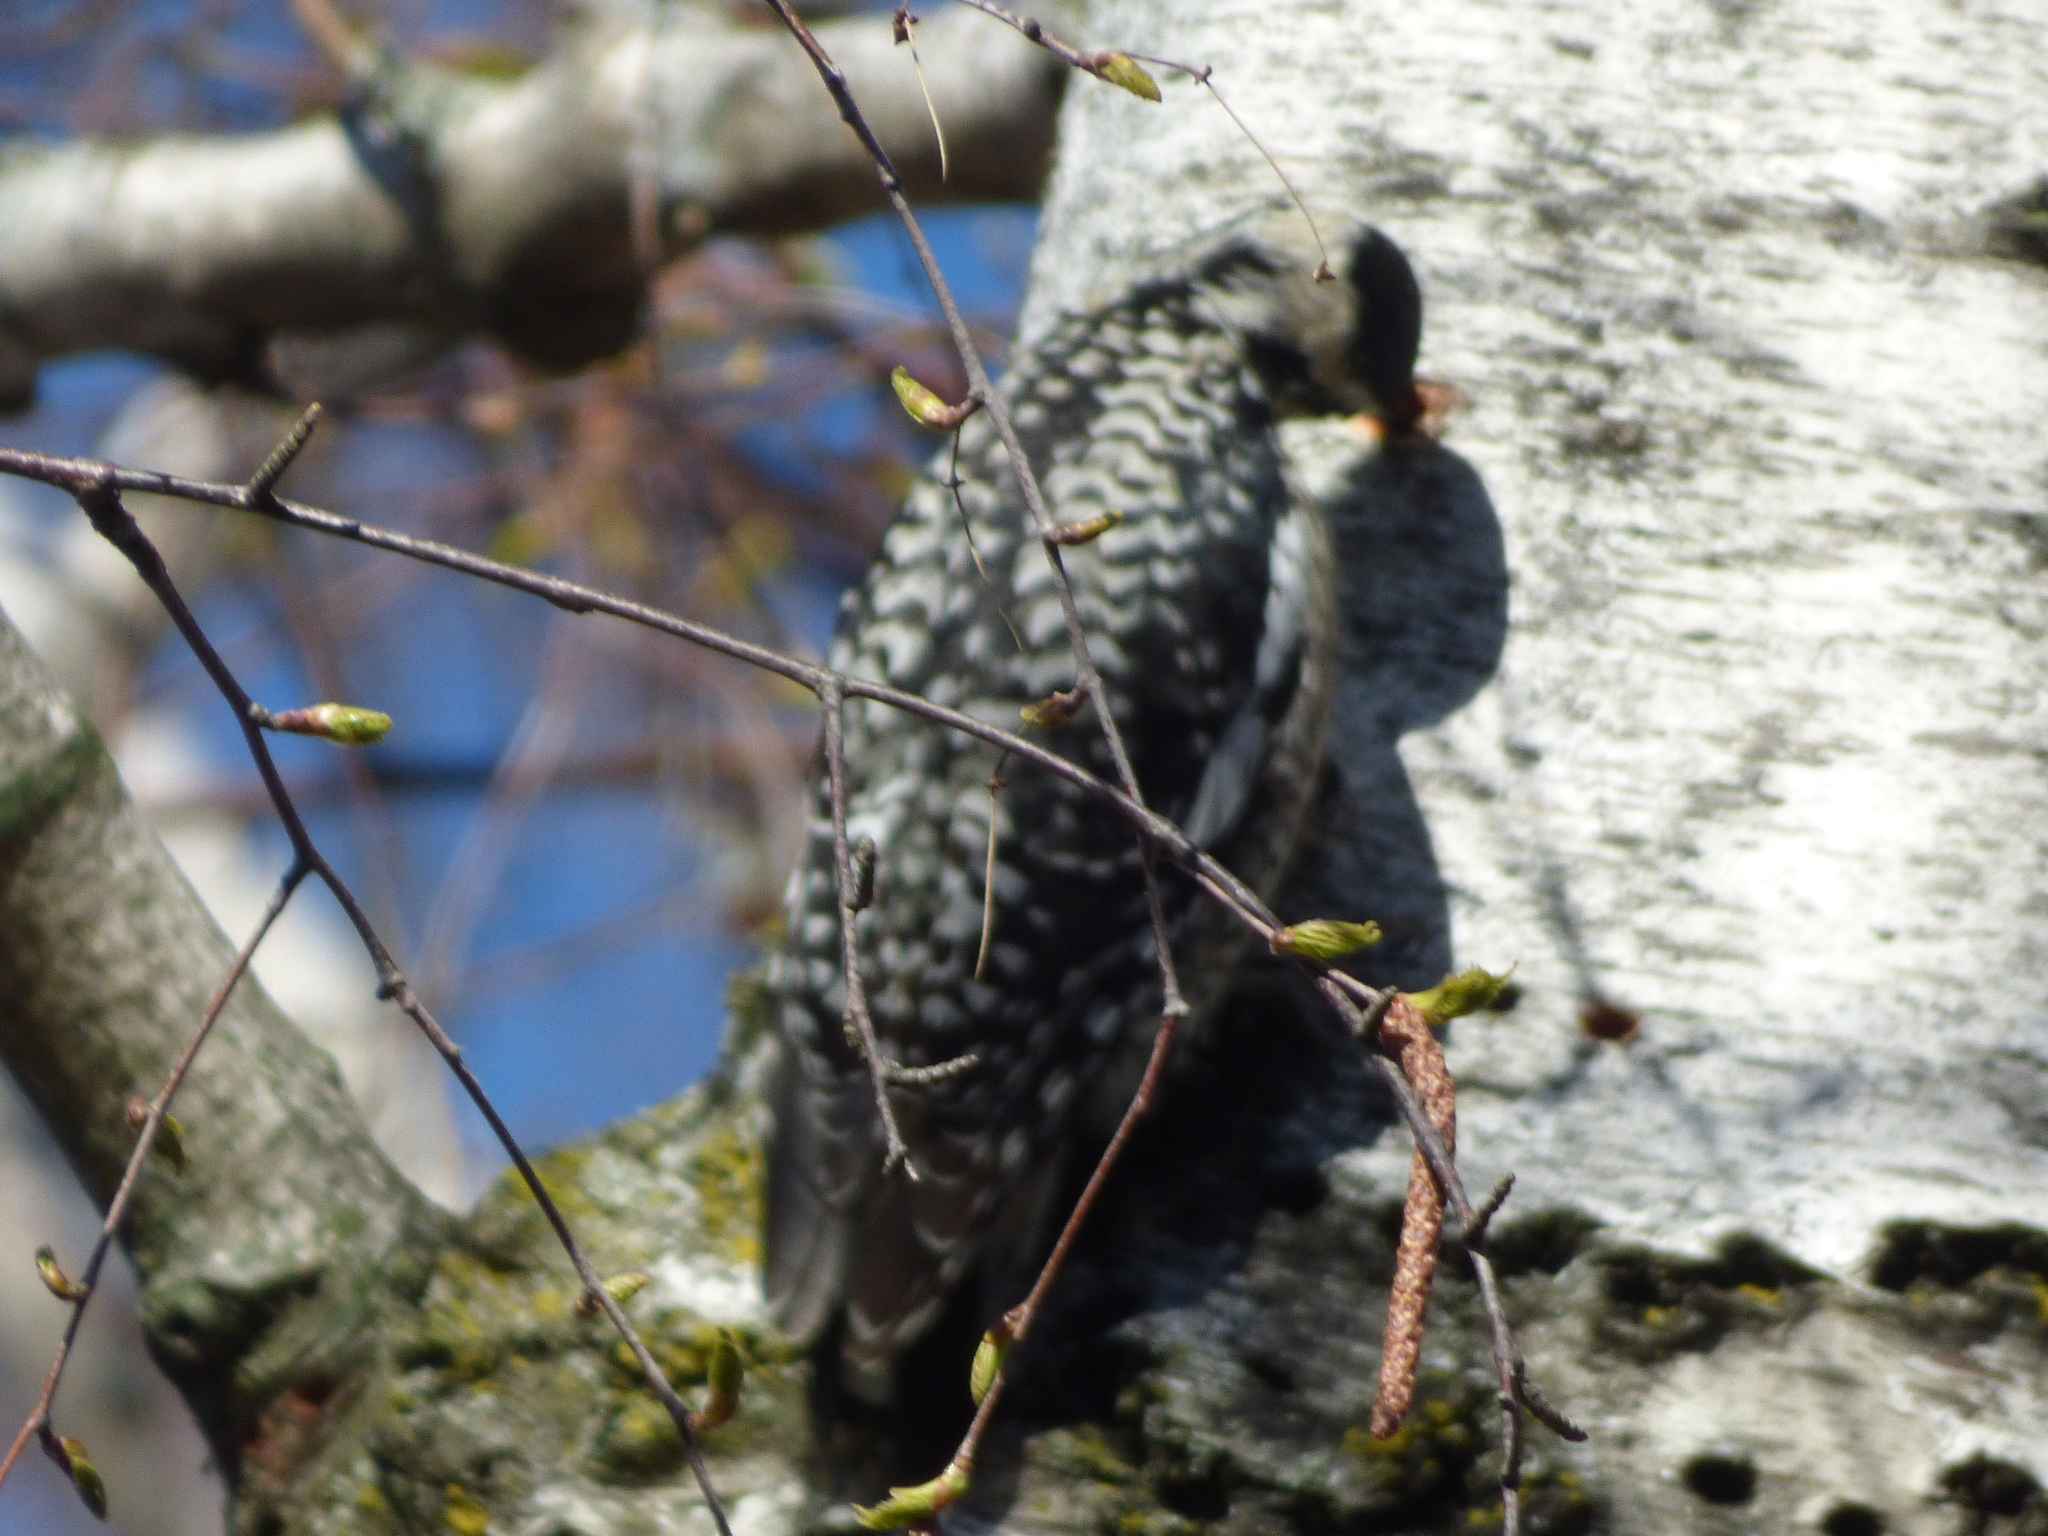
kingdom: Animalia
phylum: Chordata
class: Aves
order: Piciformes
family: Picidae
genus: Sphyrapicus
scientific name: Sphyrapicus varius
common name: Yellow-bellied sapsucker
